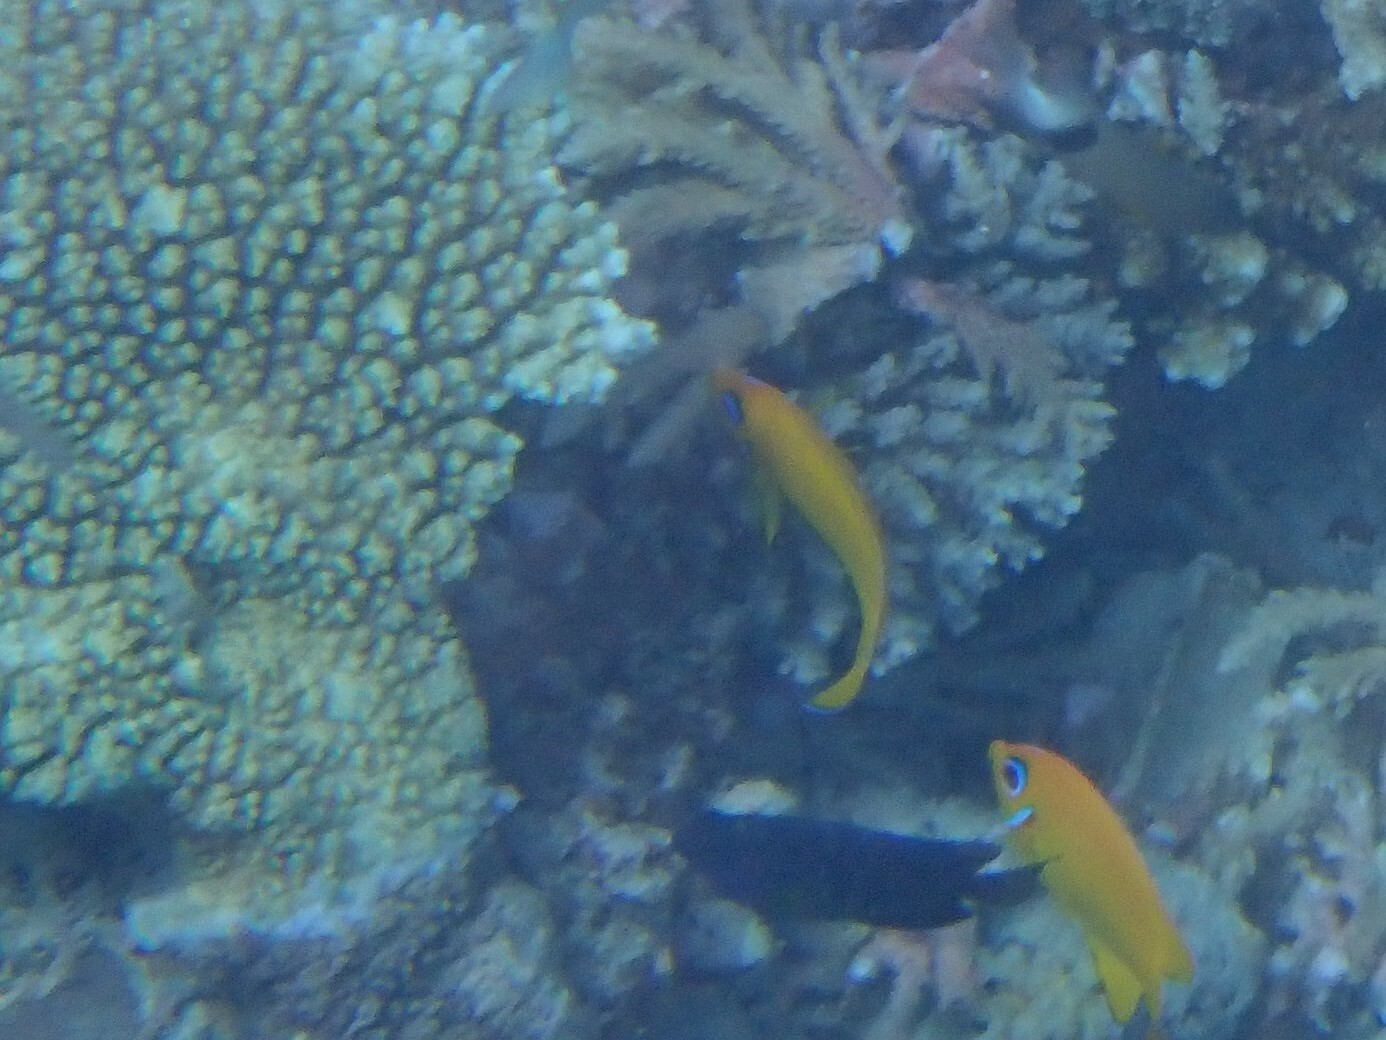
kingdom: Animalia
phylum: Chordata
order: Perciformes
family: Pomacanthidae
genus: Centropyge
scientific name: Centropyge flavissima
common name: Lemonpeel angelfish
